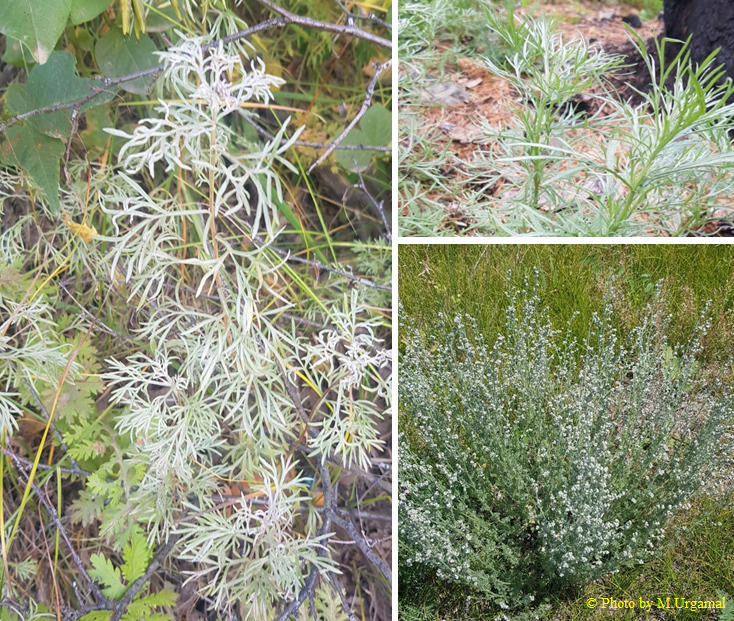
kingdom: Plantae
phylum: Tracheophyta
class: Magnoliopsida
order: Asterales
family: Asteraceae
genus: Artemisia
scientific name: Artemisia sericea
